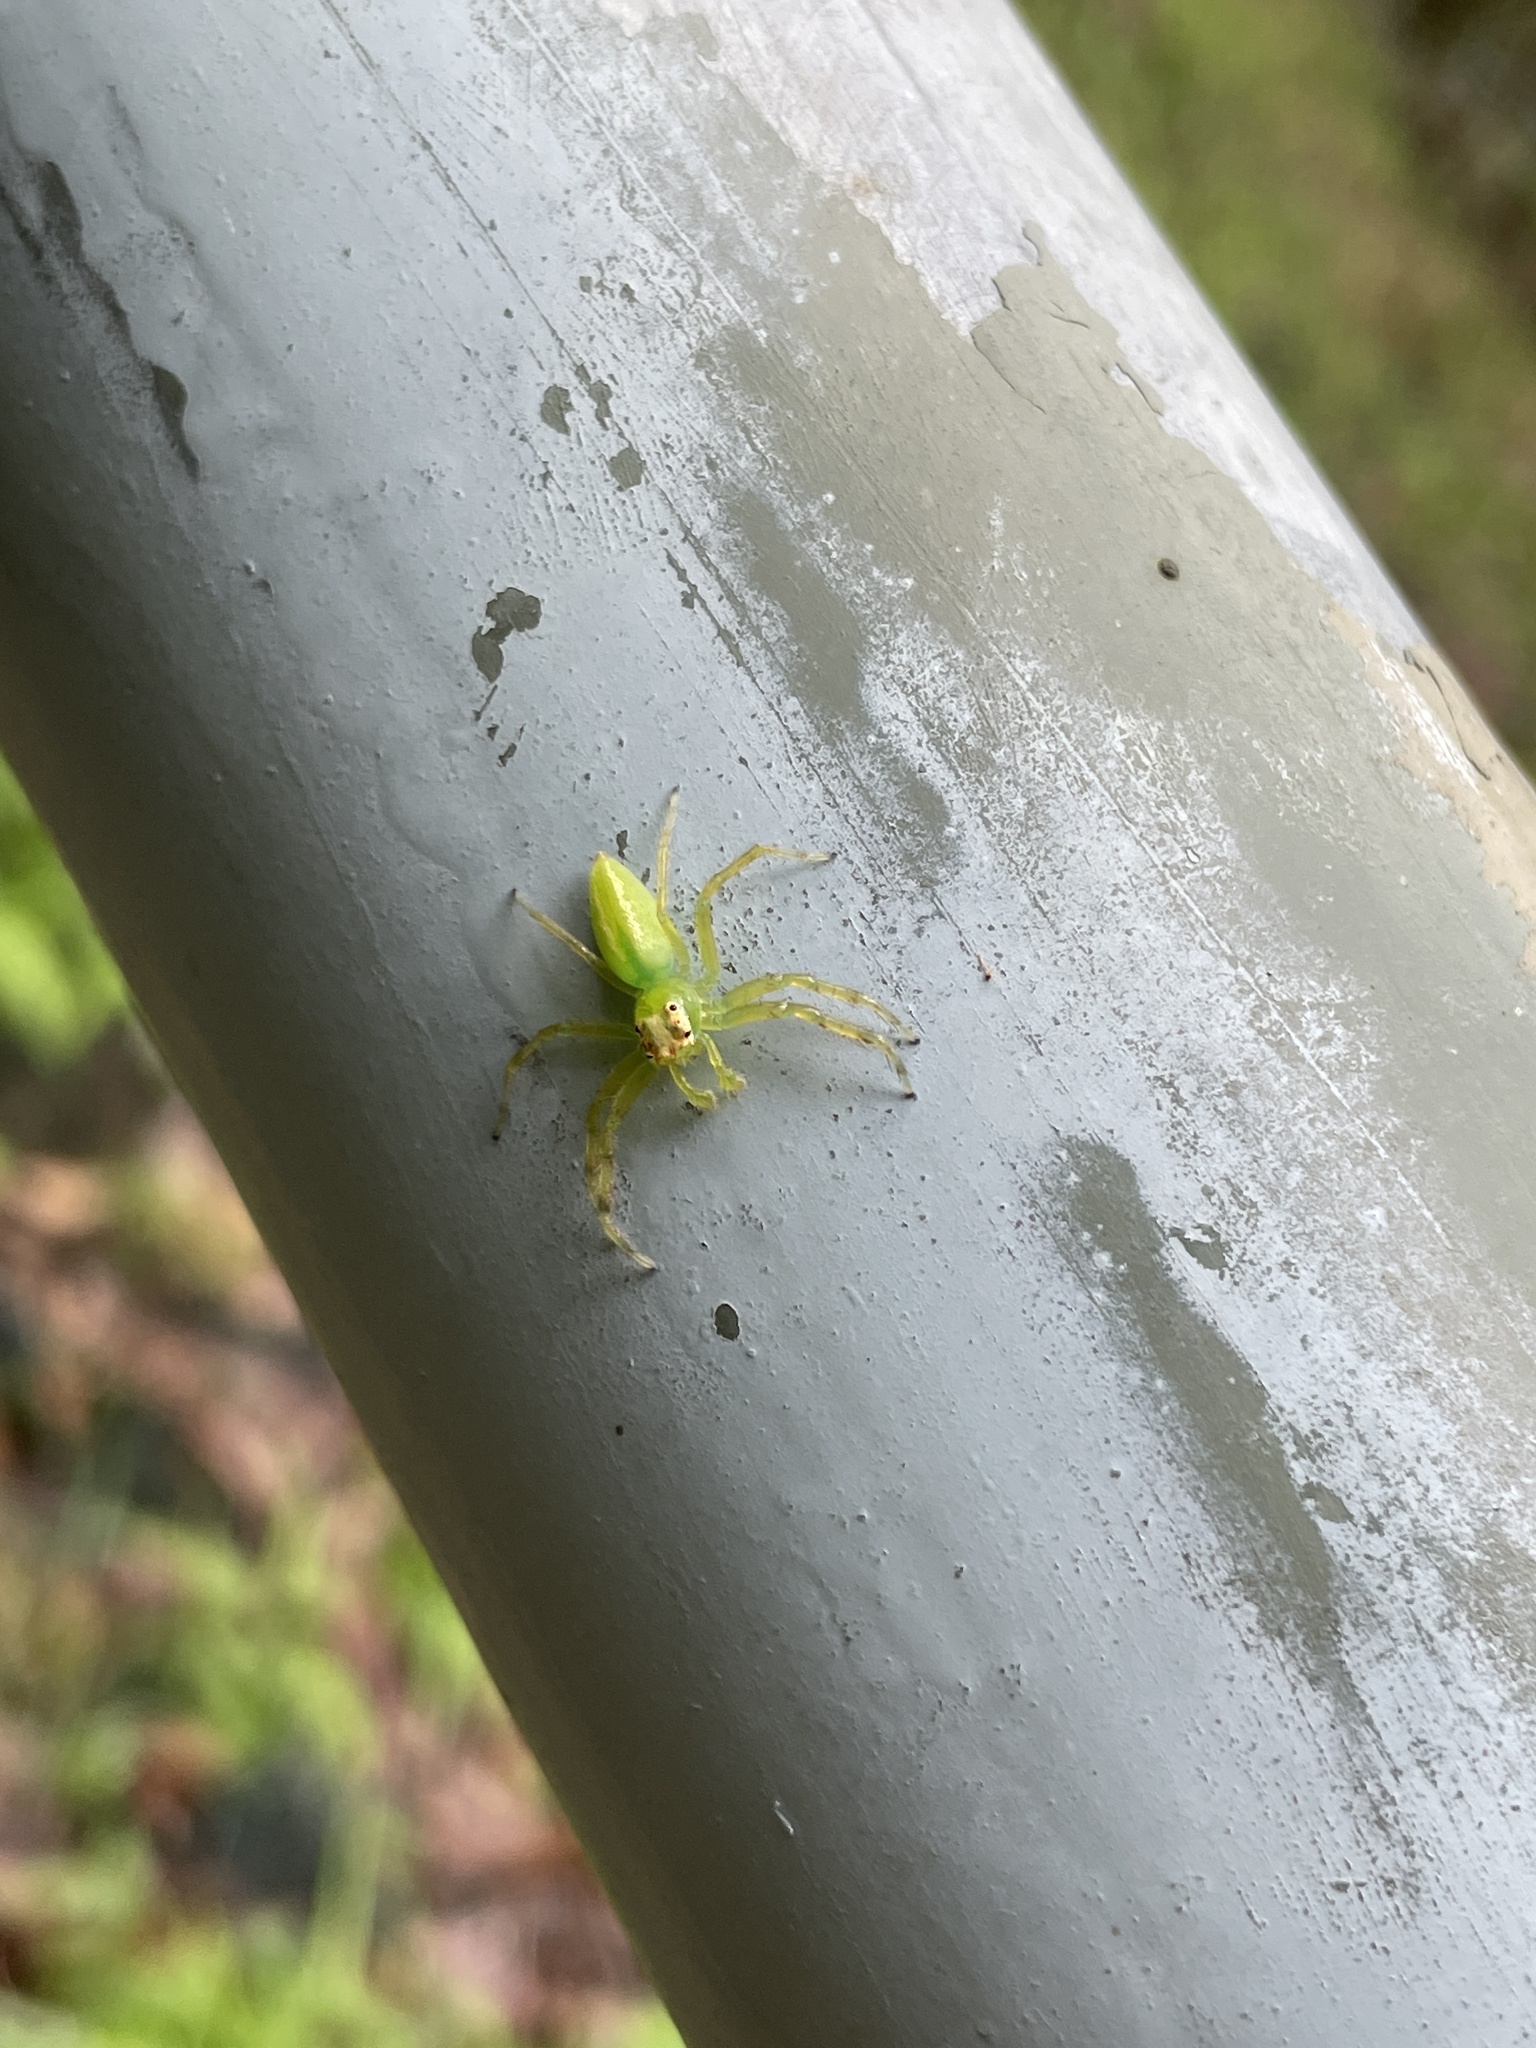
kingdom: Animalia
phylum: Arthropoda
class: Arachnida
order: Araneae
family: Salticidae
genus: Epeus
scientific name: Epeus glorius
